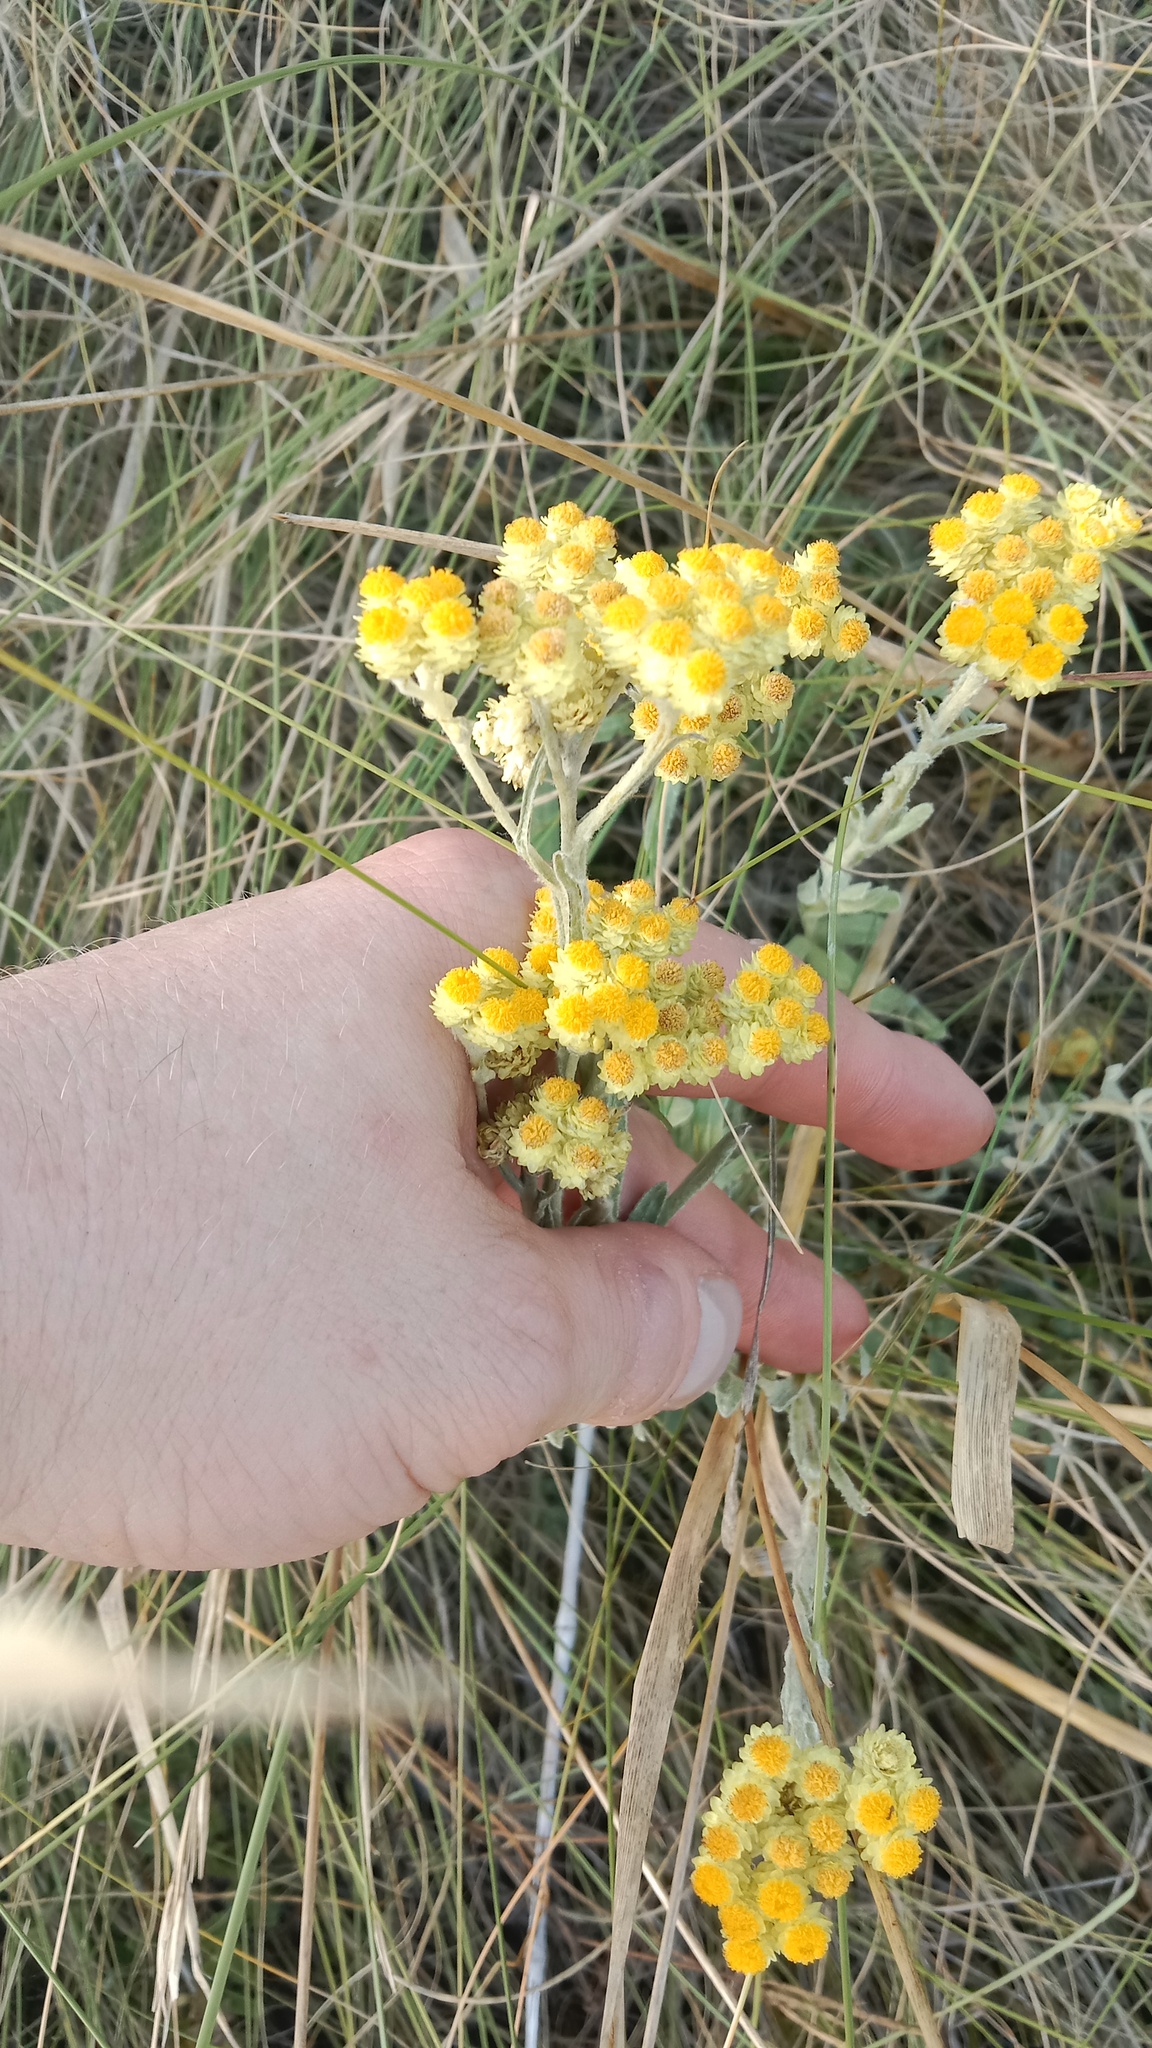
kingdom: Plantae
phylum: Tracheophyta
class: Magnoliopsida
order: Asterales
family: Asteraceae
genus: Helichrysum
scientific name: Helichrysum arenarium
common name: Strawflower
